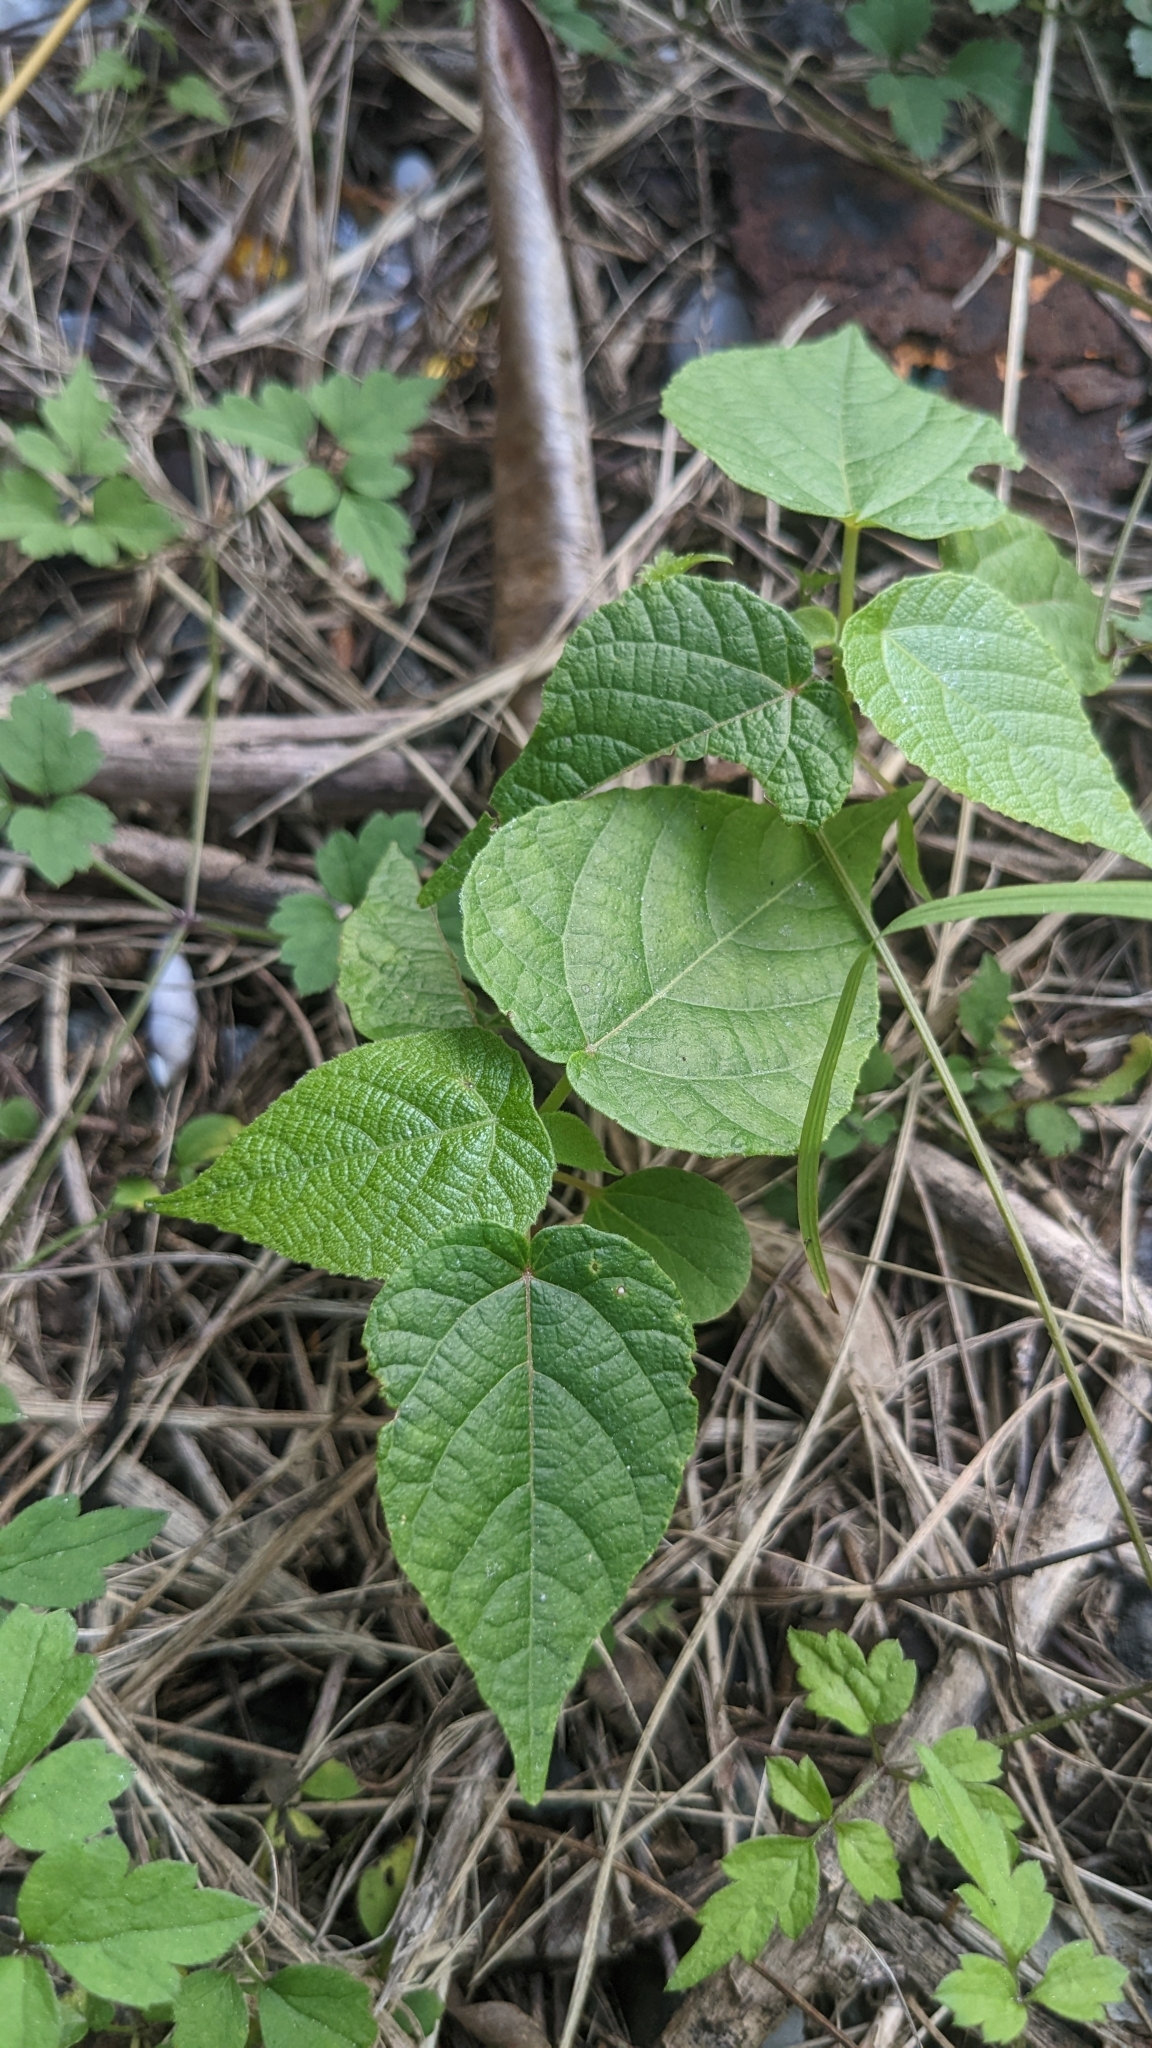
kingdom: Plantae
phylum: Tracheophyta
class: Magnoliopsida
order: Malpighiales
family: Euphorbiaceae
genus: Macaranga
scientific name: Macaranga tanarius
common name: Parasol leaf tree
